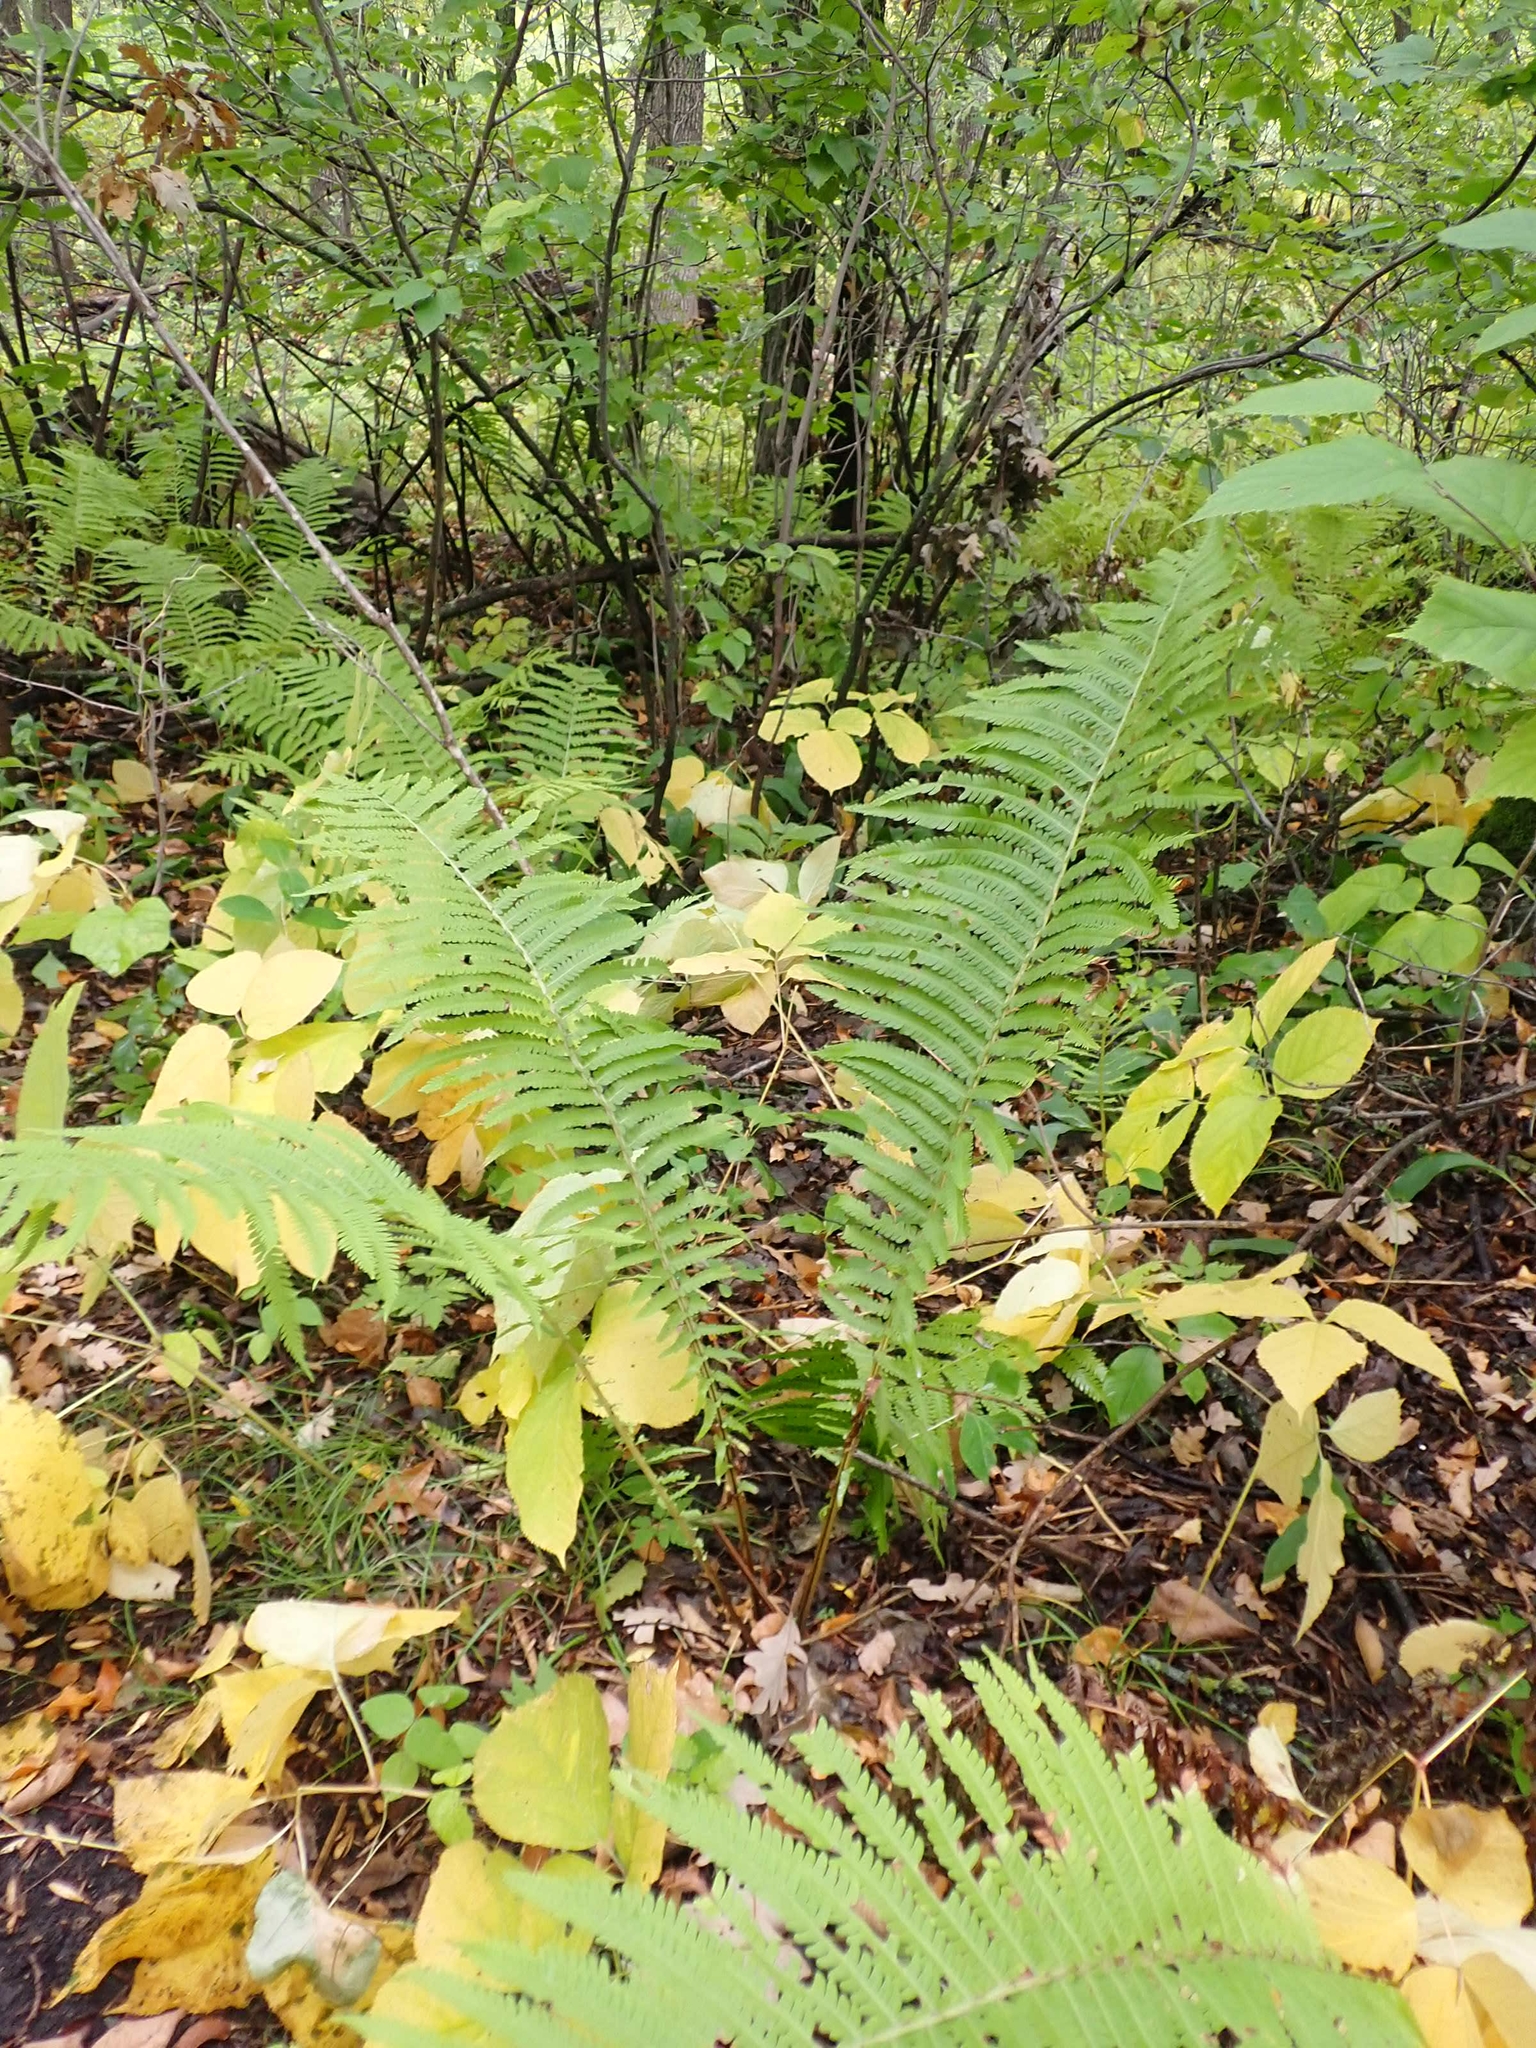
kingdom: Plantae
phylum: Tracheophyta
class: Polypodiopsida
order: Polypodiales
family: Onocleaceae
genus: Matteuccia
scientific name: Matteuccia struthiopteris
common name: Ostrich fern
